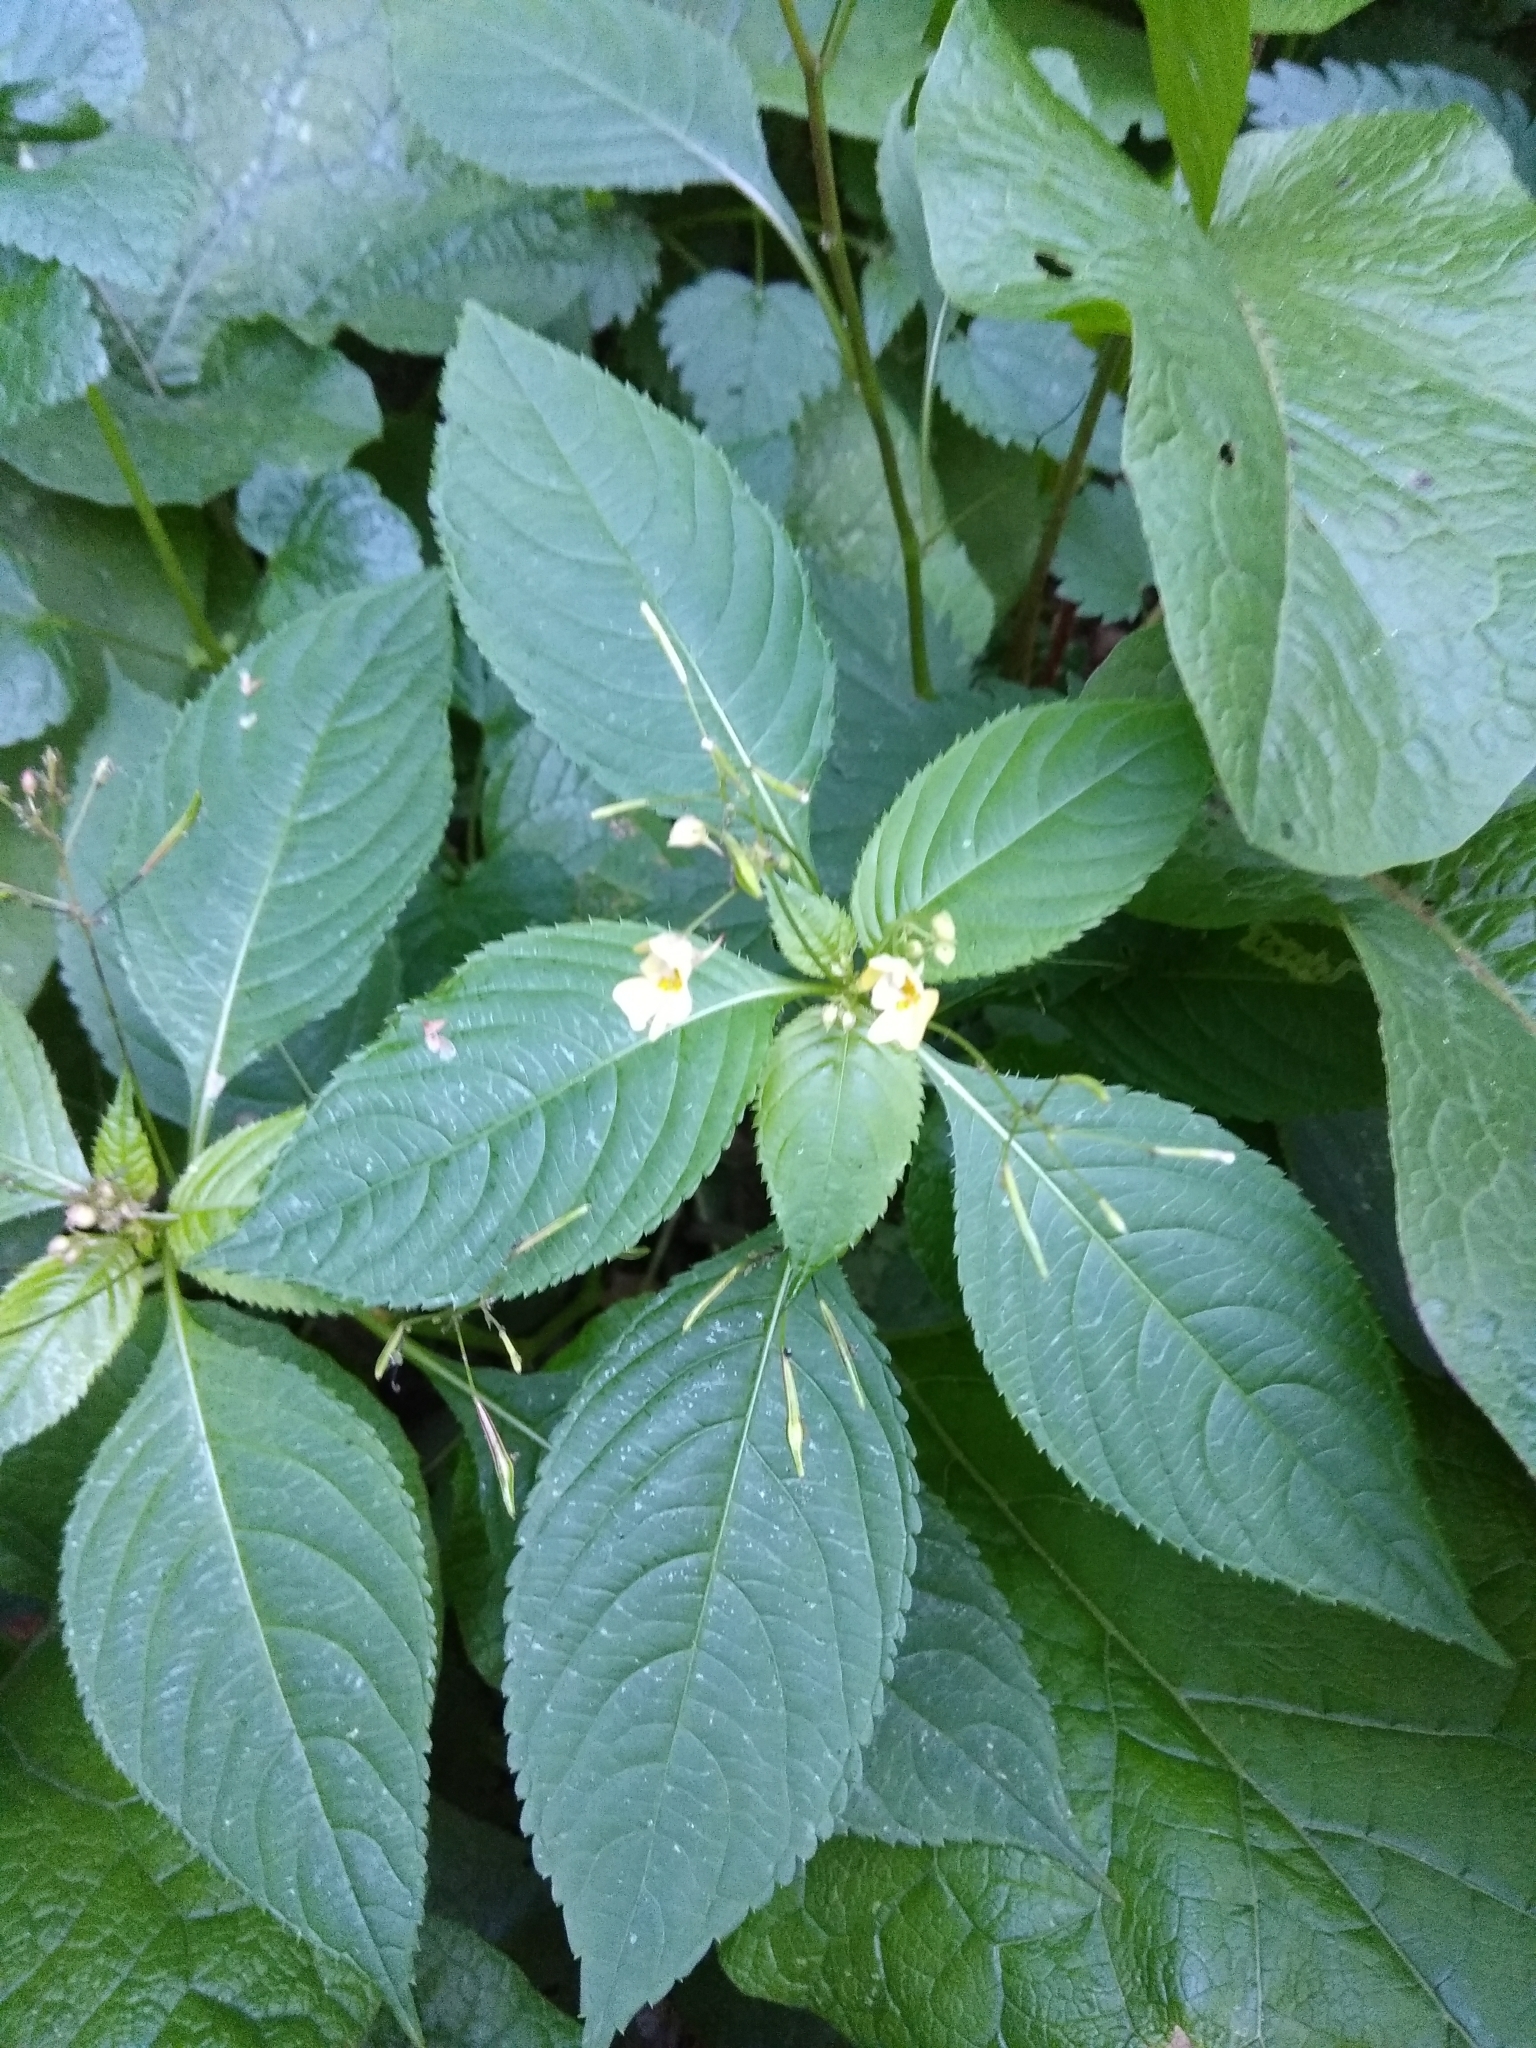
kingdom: Plantae
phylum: Tracheophyta
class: Magnoliopsida
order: Ericales
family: Balsaminaceae
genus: Impatiens
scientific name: Impatiens parviflora
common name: Small balsam
